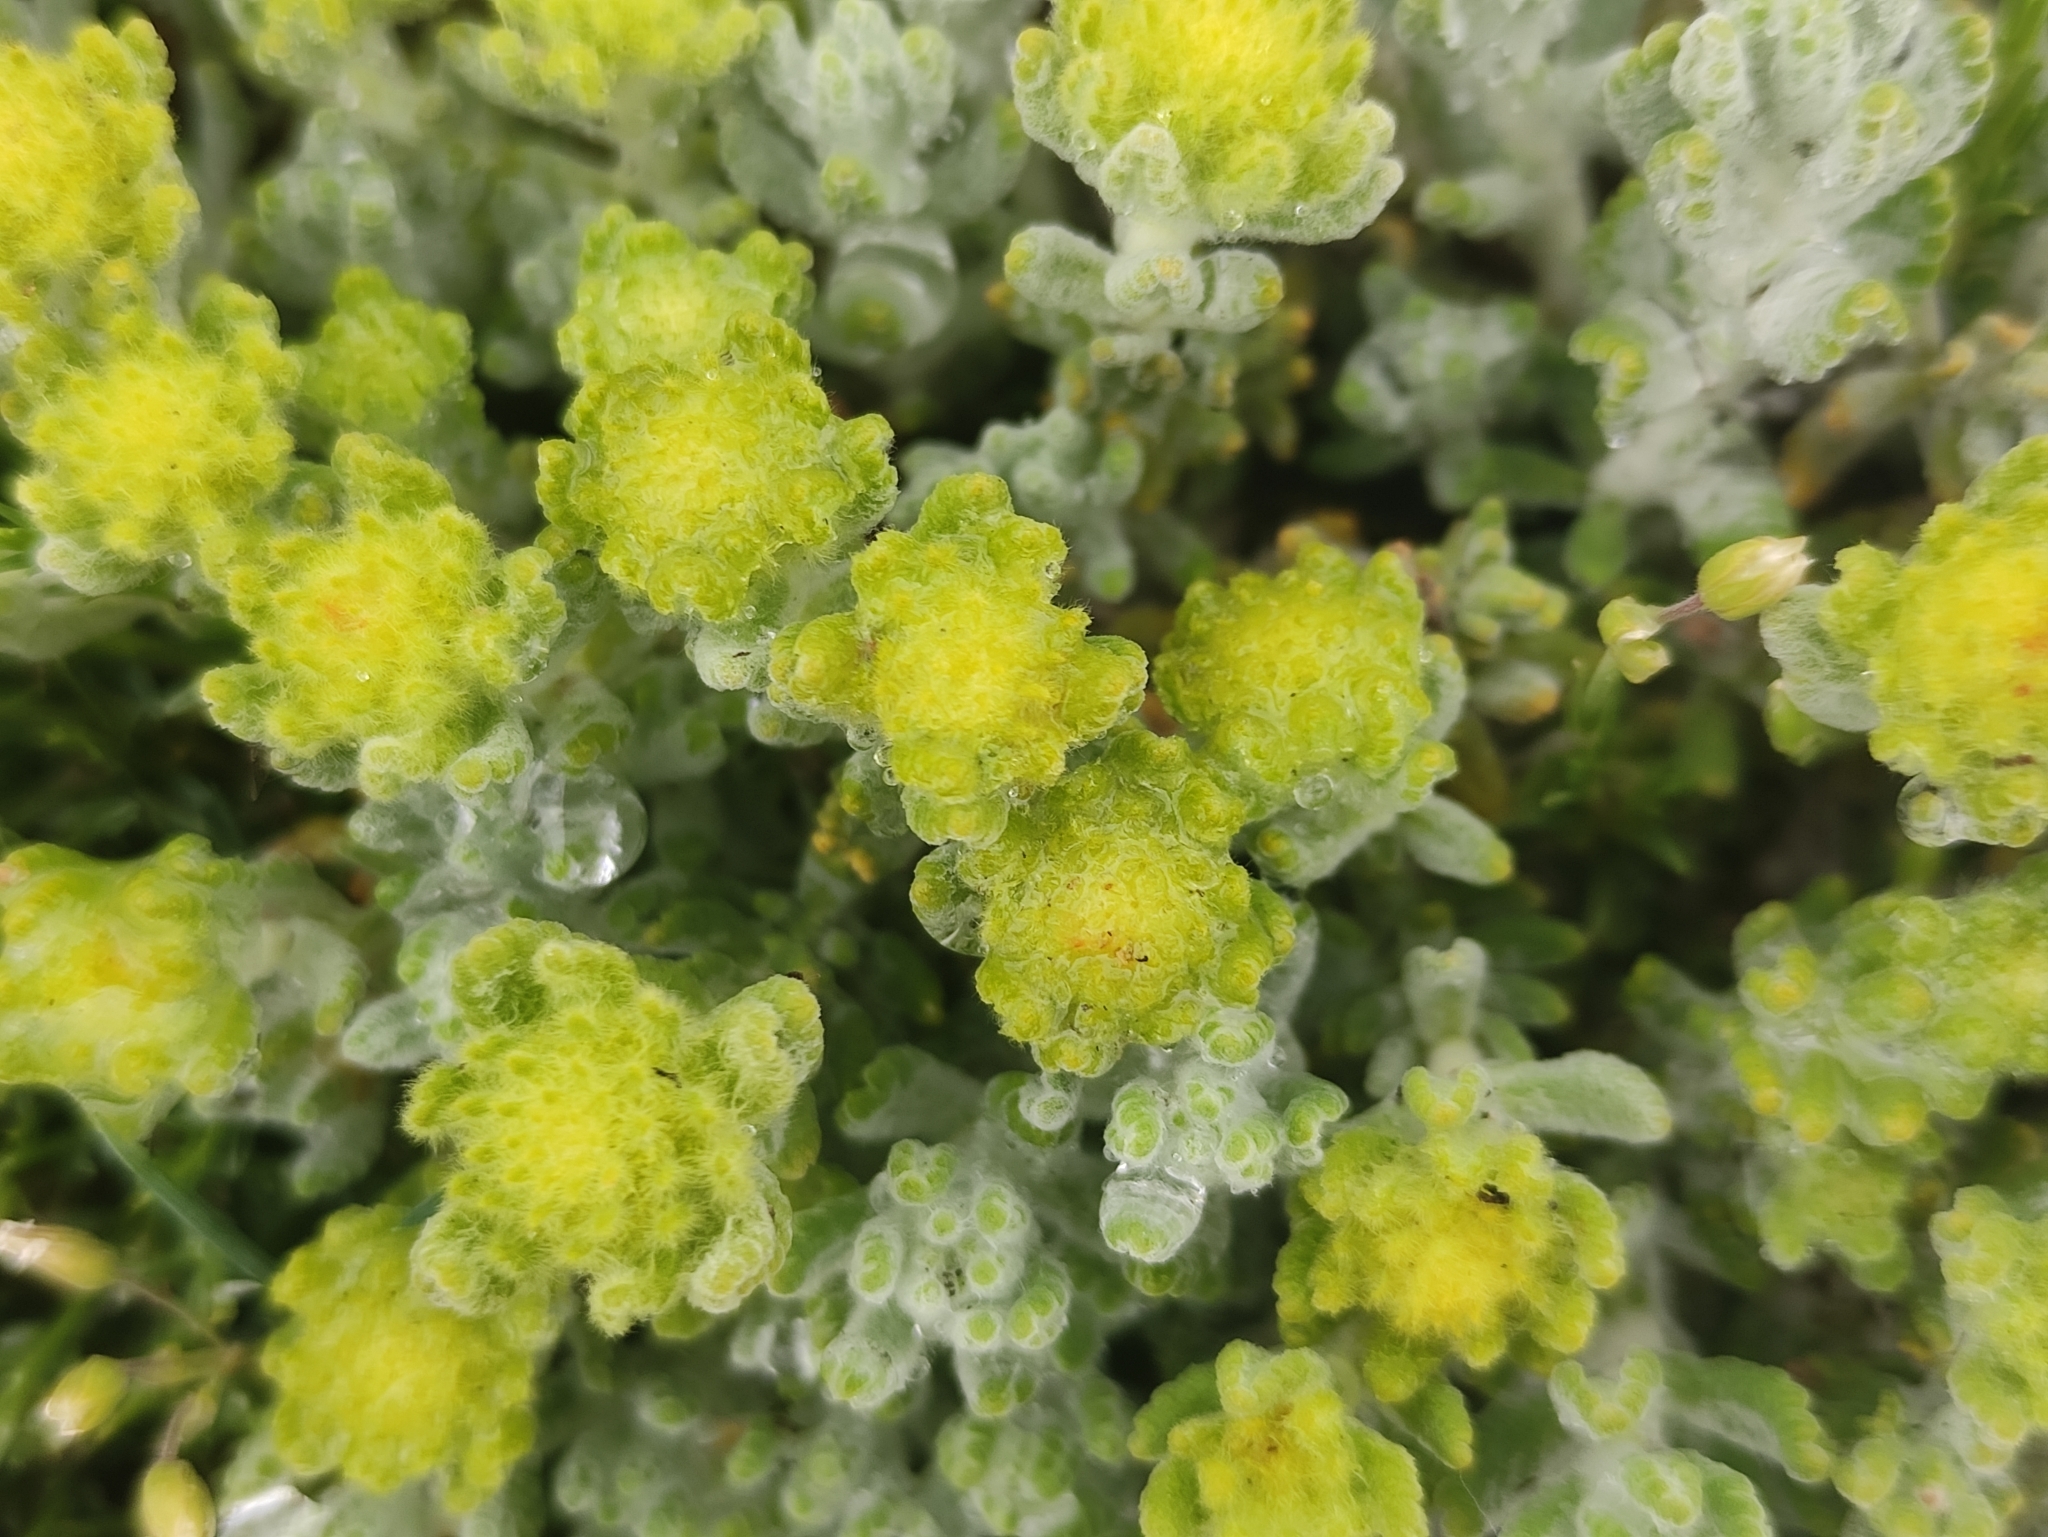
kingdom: Plantae
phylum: Tracheophyta
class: Magnoliopsida
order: Lamiales
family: Lamiaceae
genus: Teucrium
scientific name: Teucrium aureum
